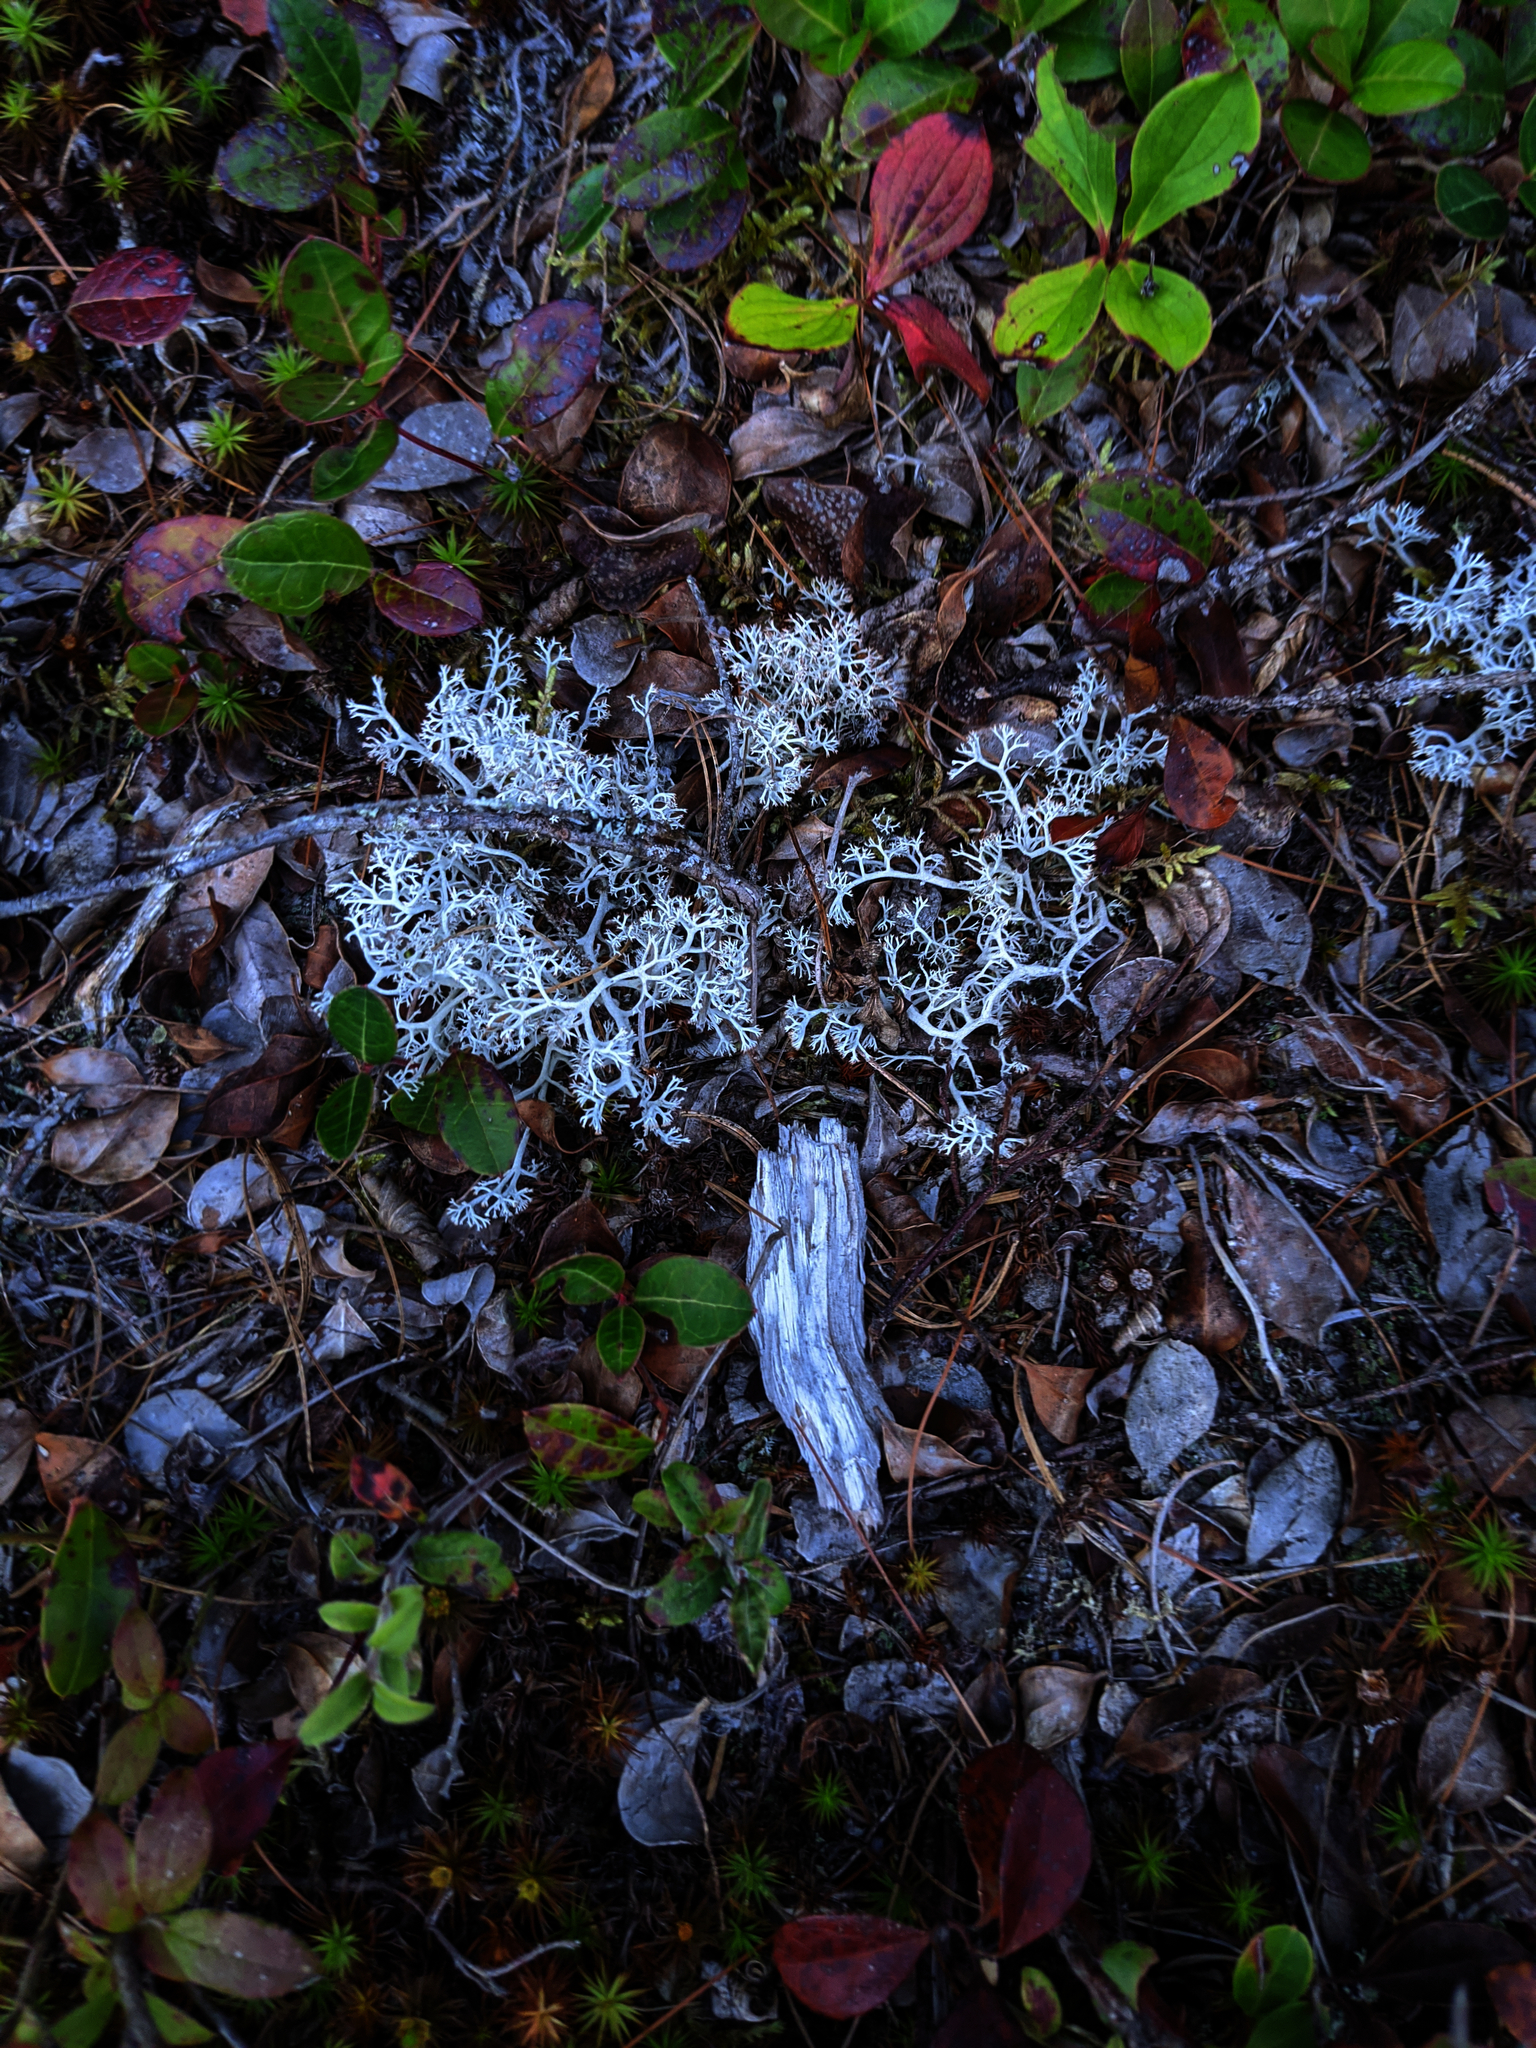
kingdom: Plantae
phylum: Tracheophyta
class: Magnoliopsida
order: Ericales
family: Ericaceae
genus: Gaultheria
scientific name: Gaultheria procumbens
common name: Checkerberry
